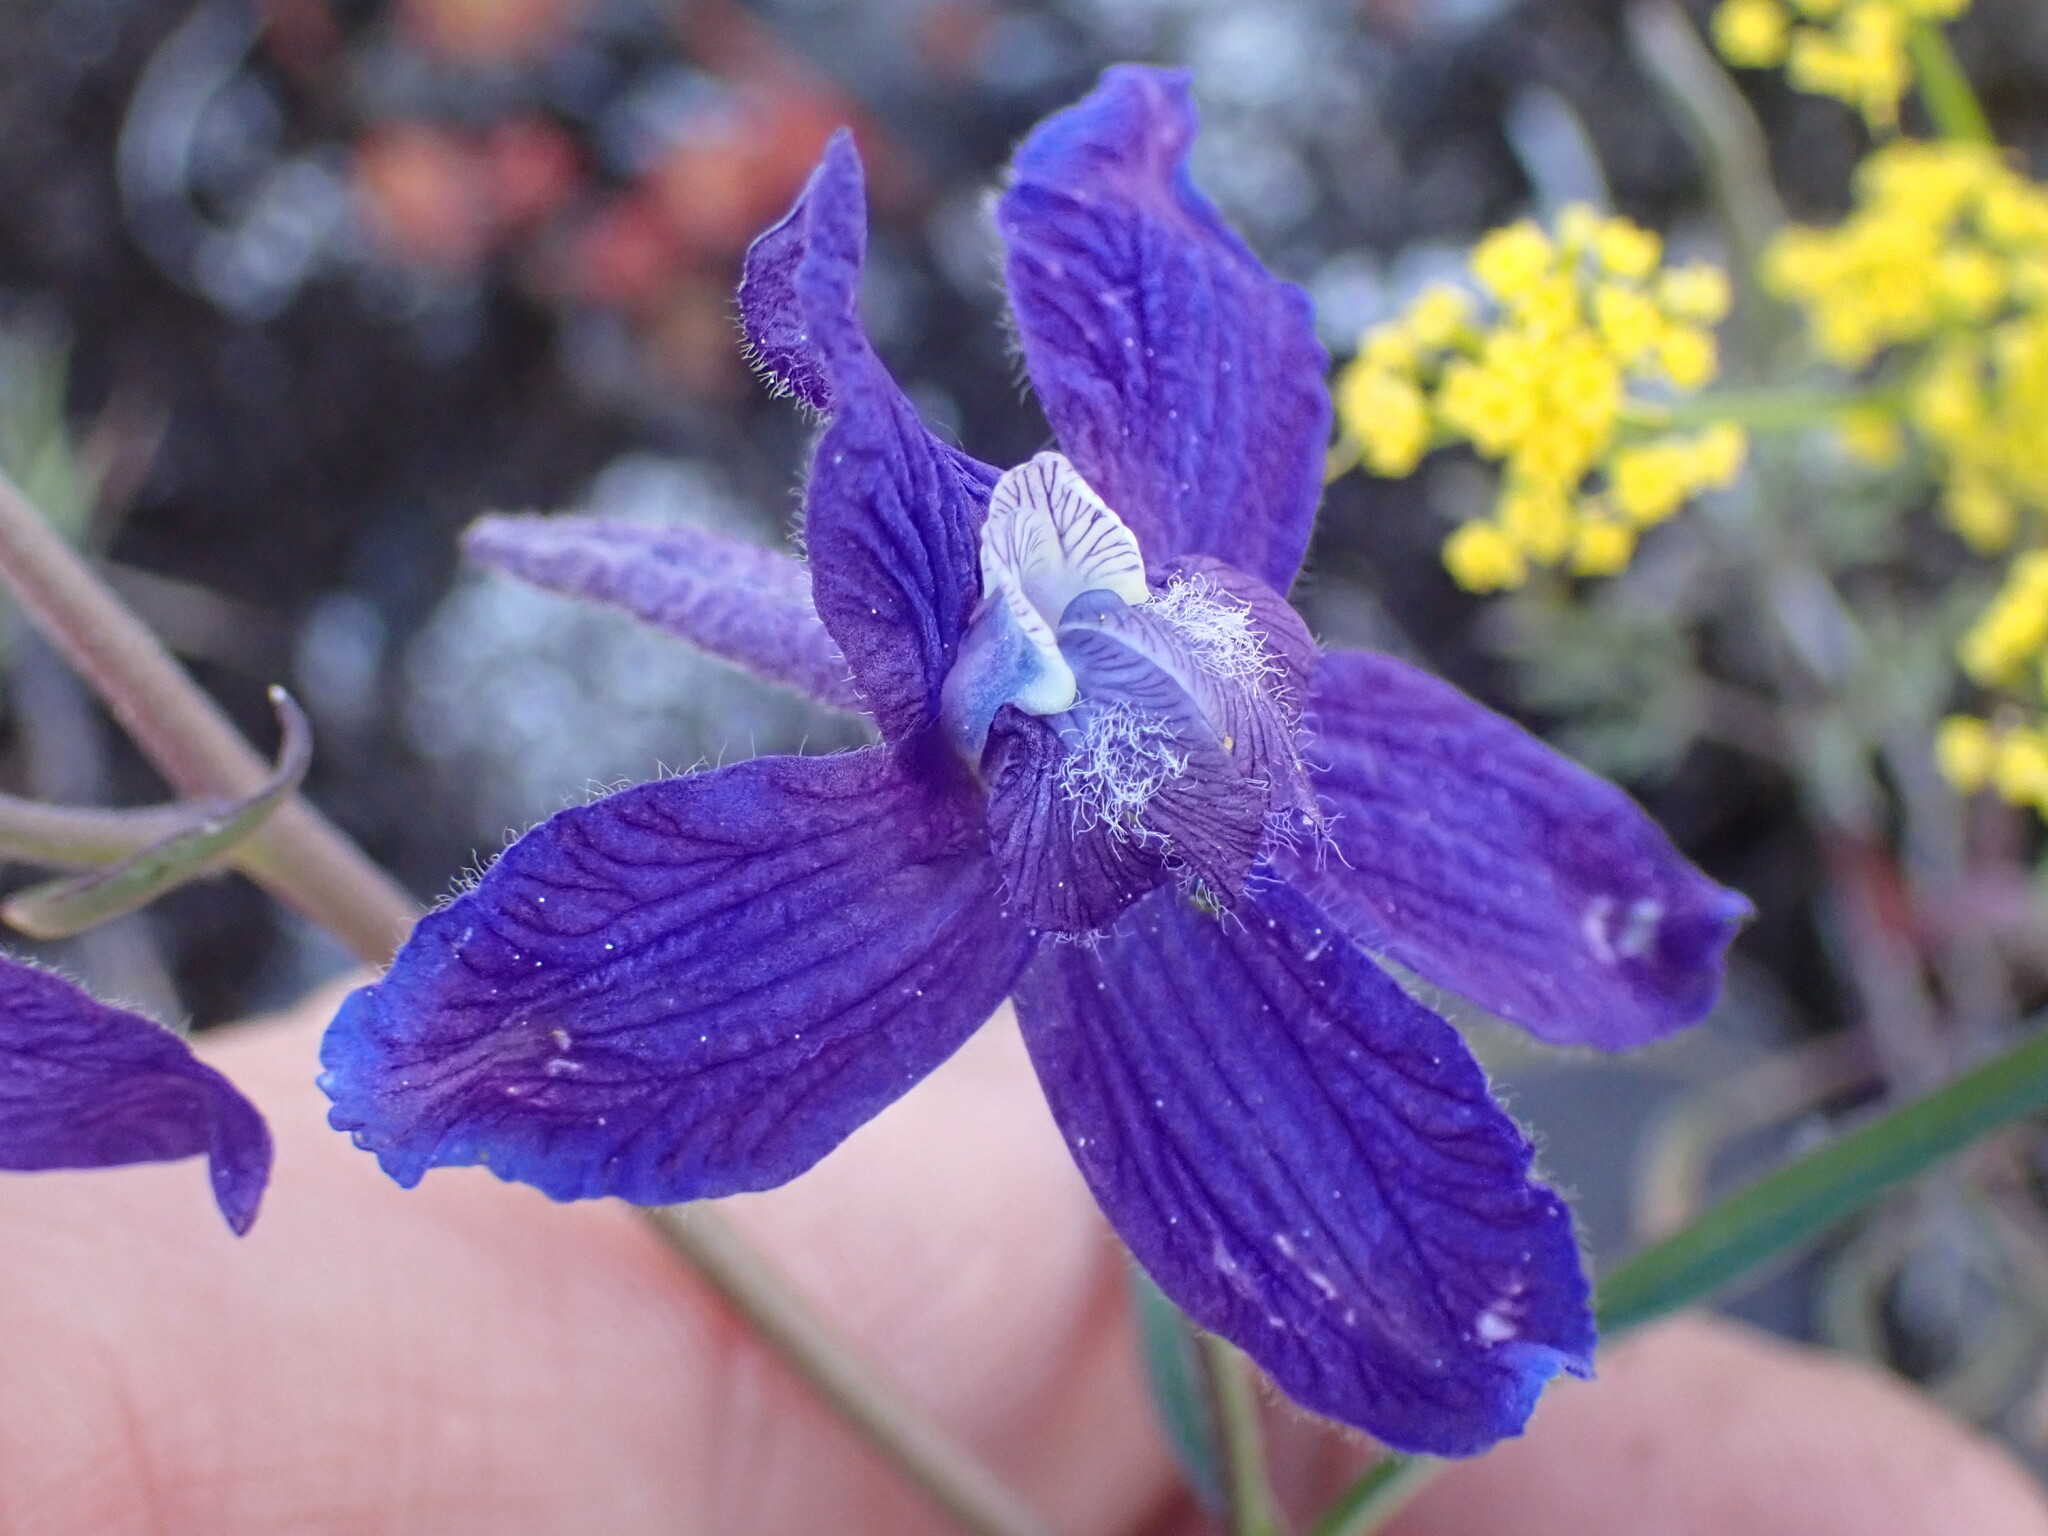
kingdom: Plantae
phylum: Tracheophyta
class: Magnoliopsida
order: Ranunculales
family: Ranunculaceae
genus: Delphinium
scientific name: Delphinium nuttallianum
